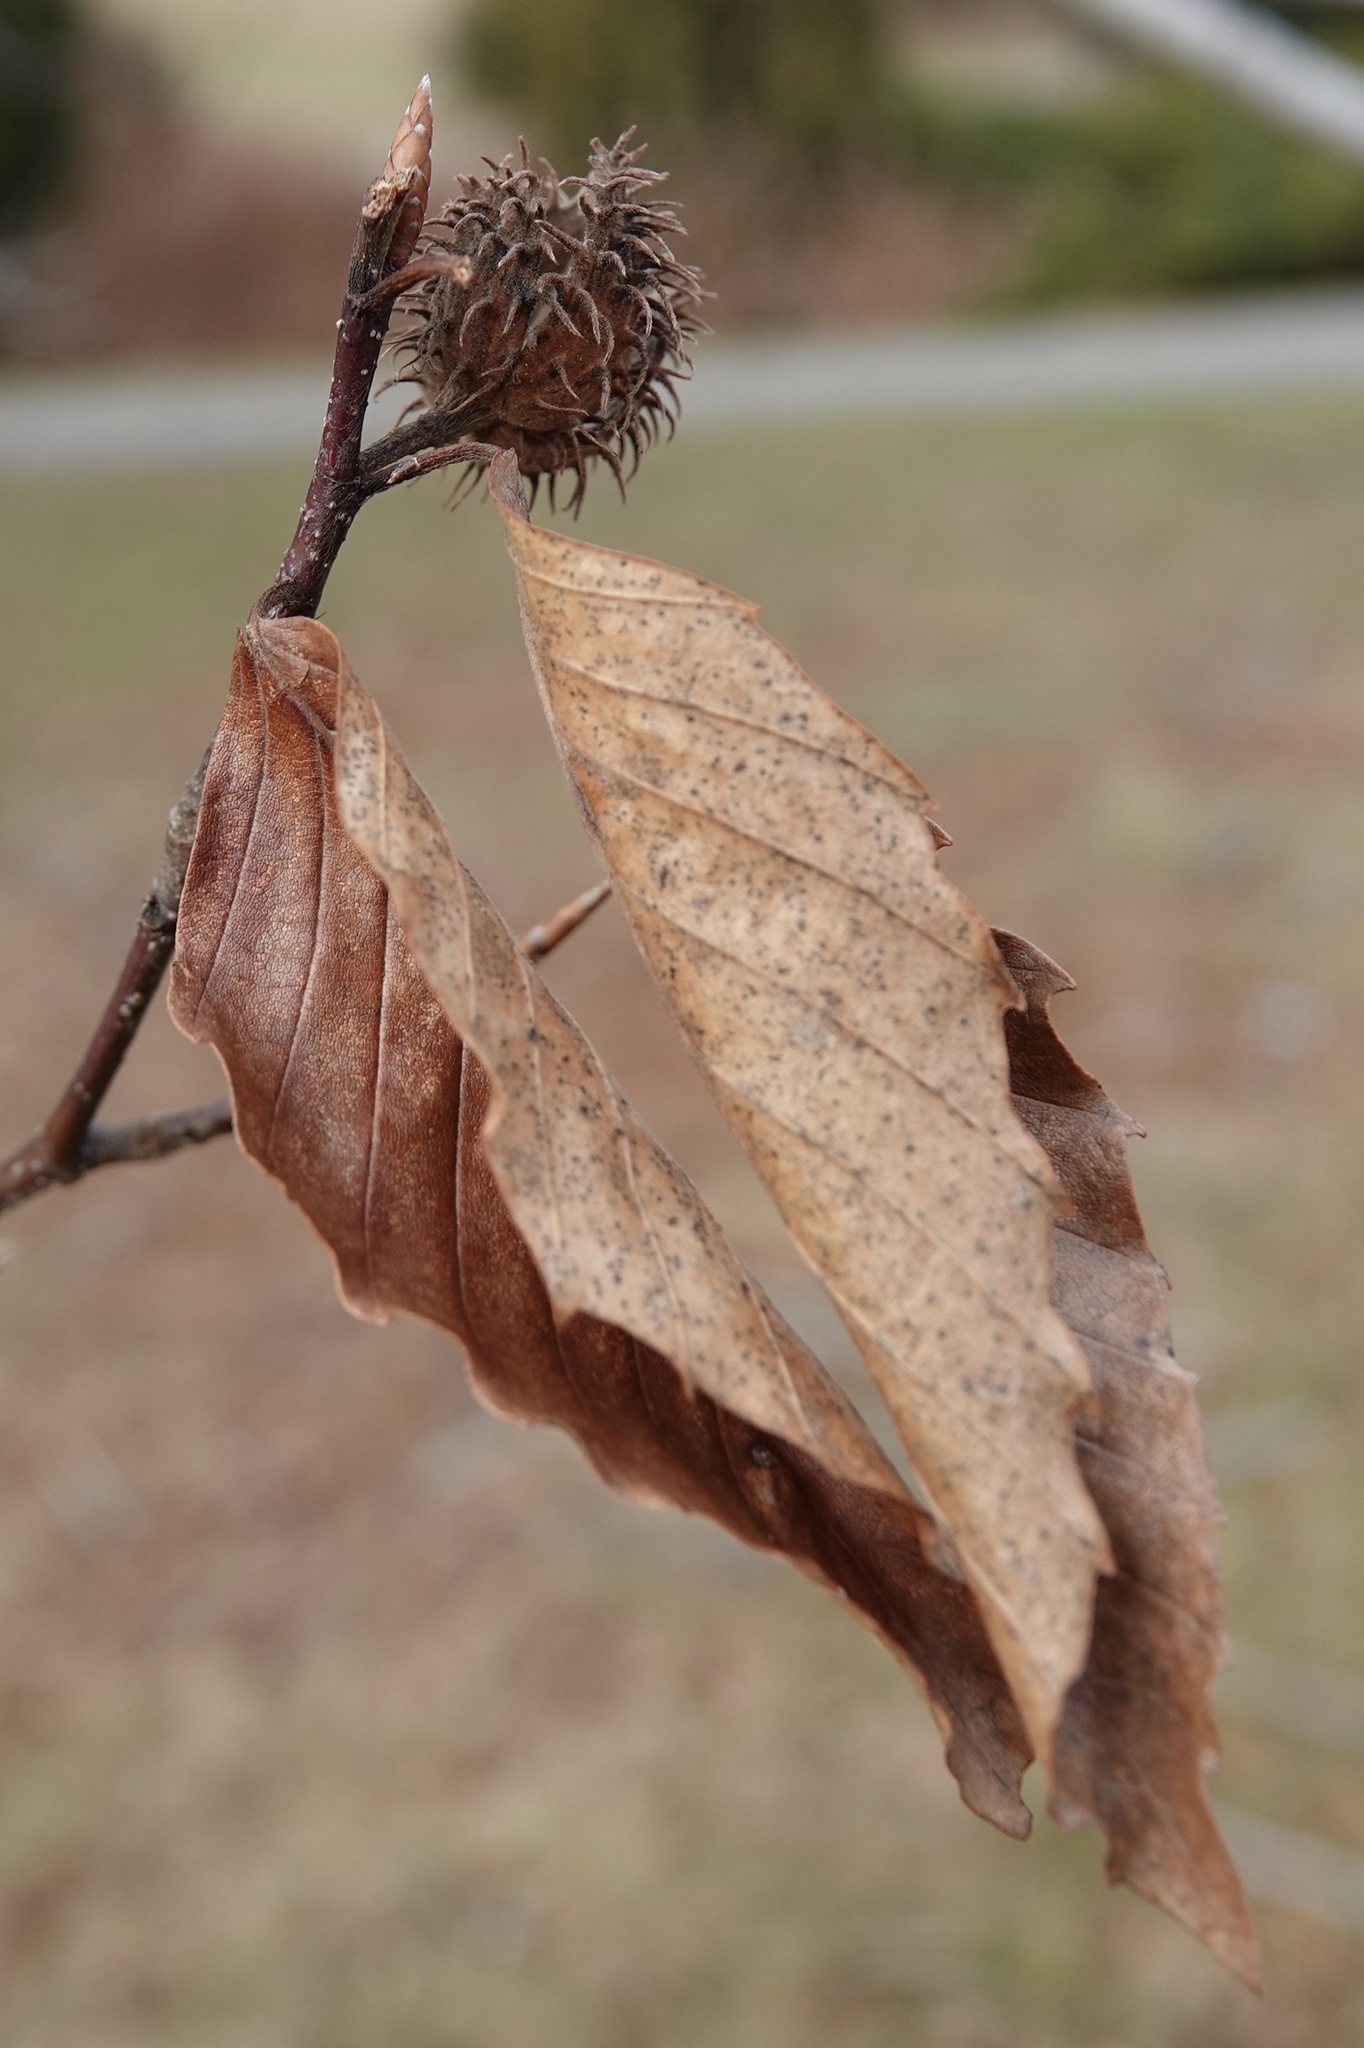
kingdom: Plantae
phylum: Tracheophyta
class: Magnoliopsida
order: Fagales
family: Fagaceae
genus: Fagus
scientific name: Fagus grandifolia
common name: American beech
